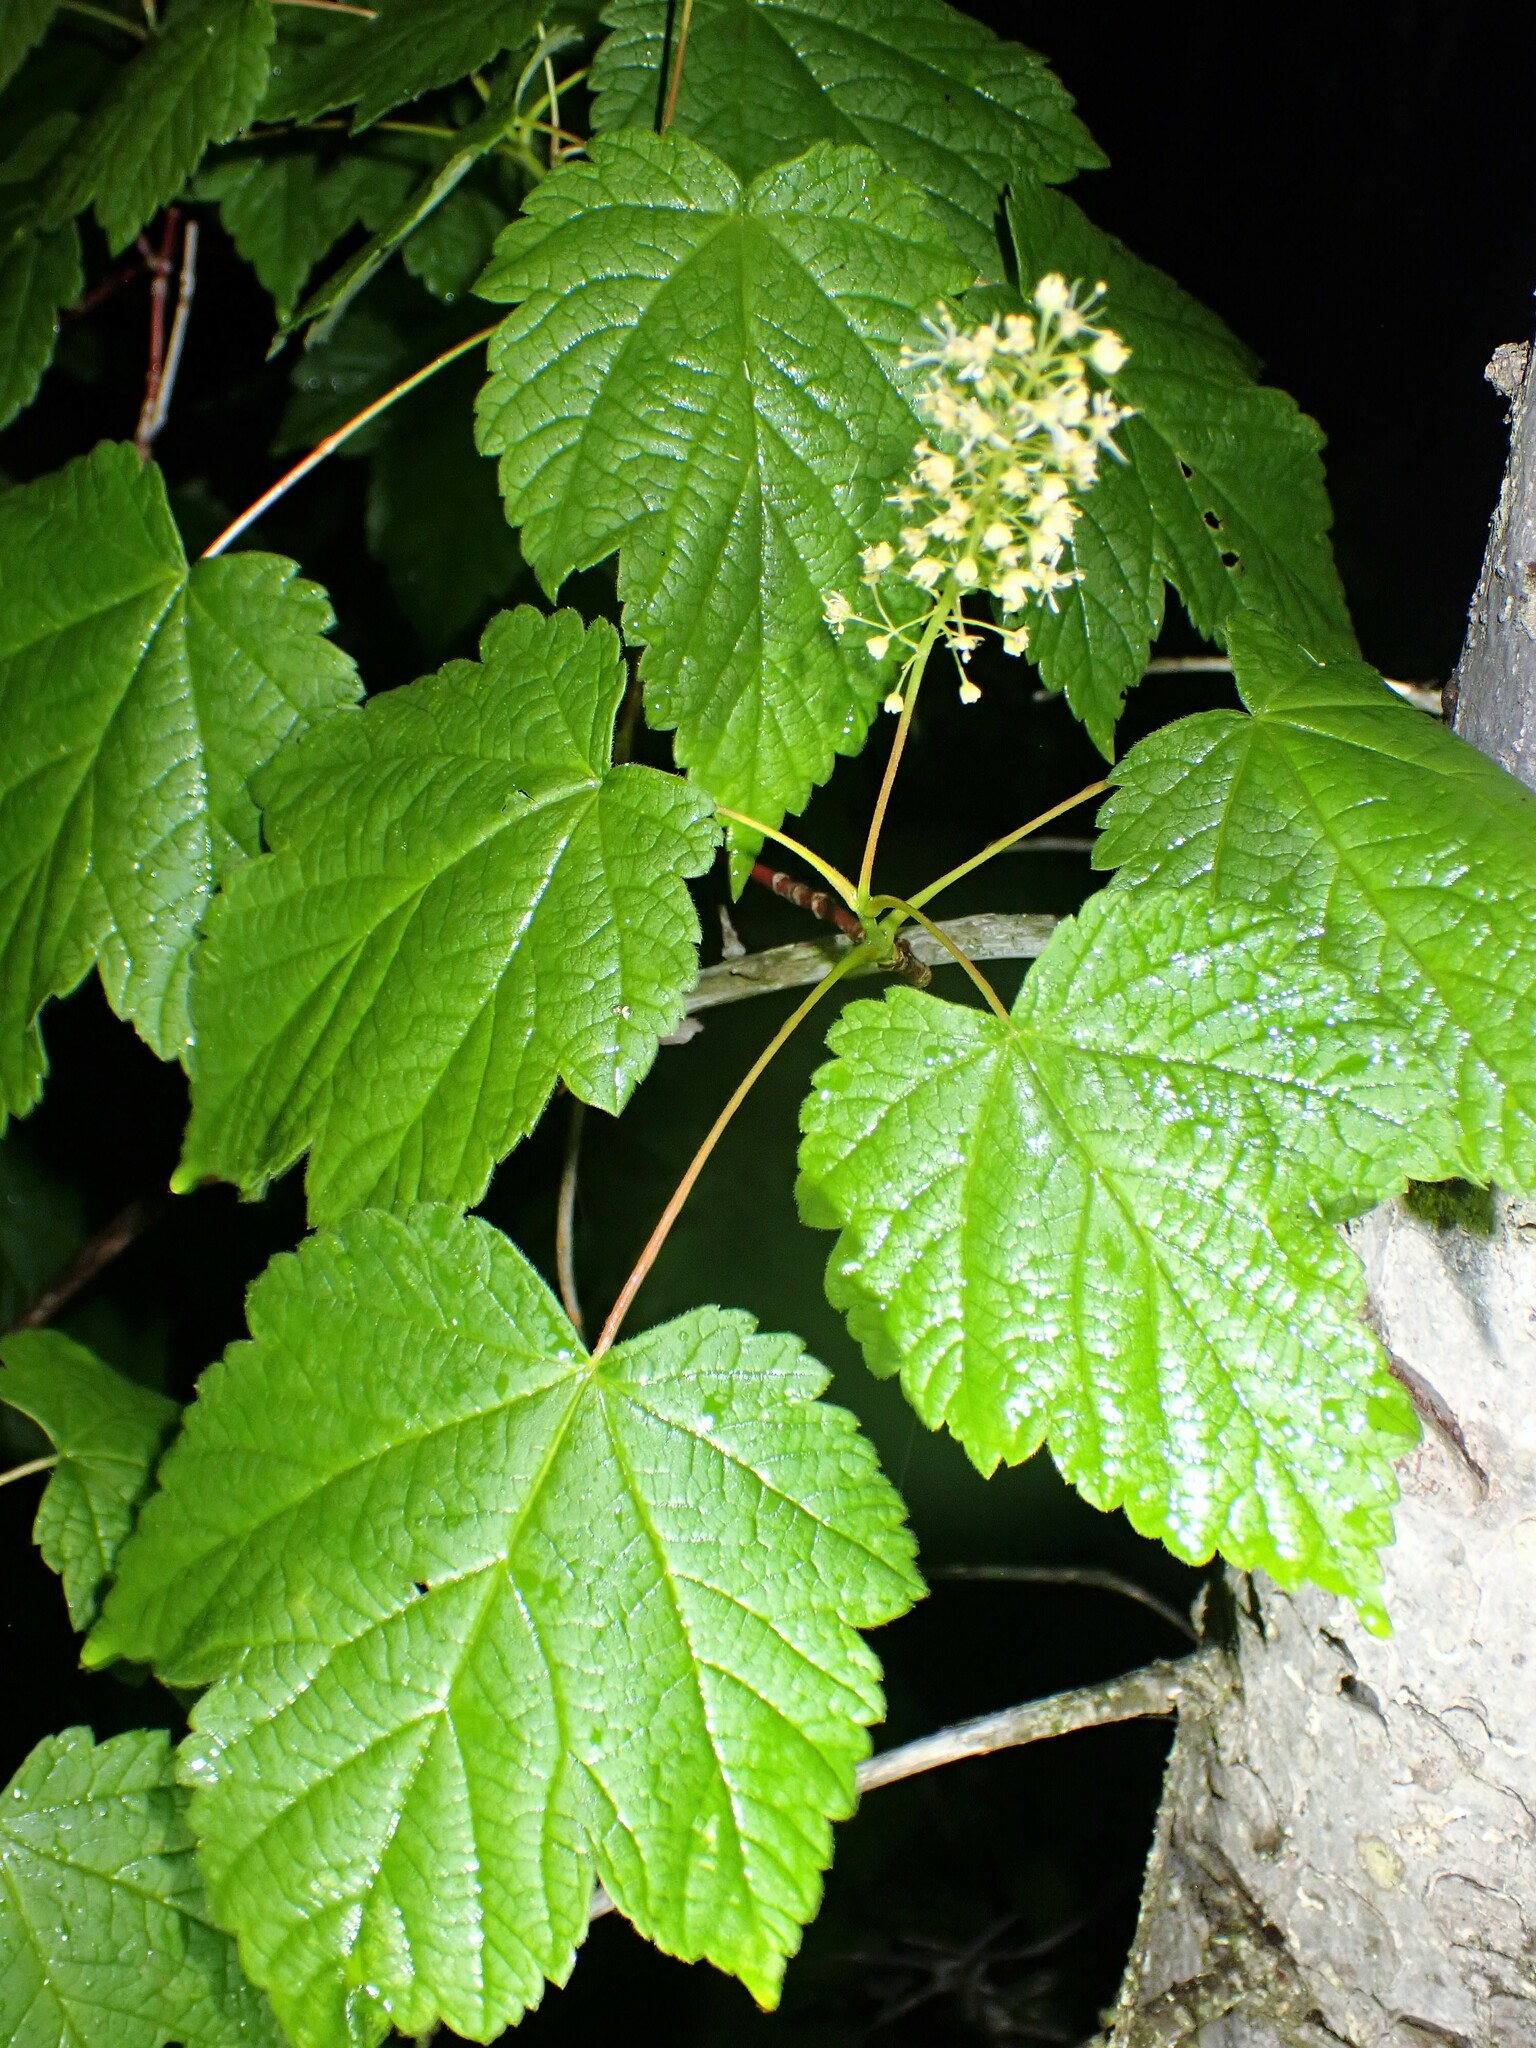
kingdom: Plantae
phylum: Tracheophyta
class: Magnoliopsida
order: Sapindales
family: Sapindaceae
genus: Acer
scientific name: Acer spicatum
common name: Mountain maple
